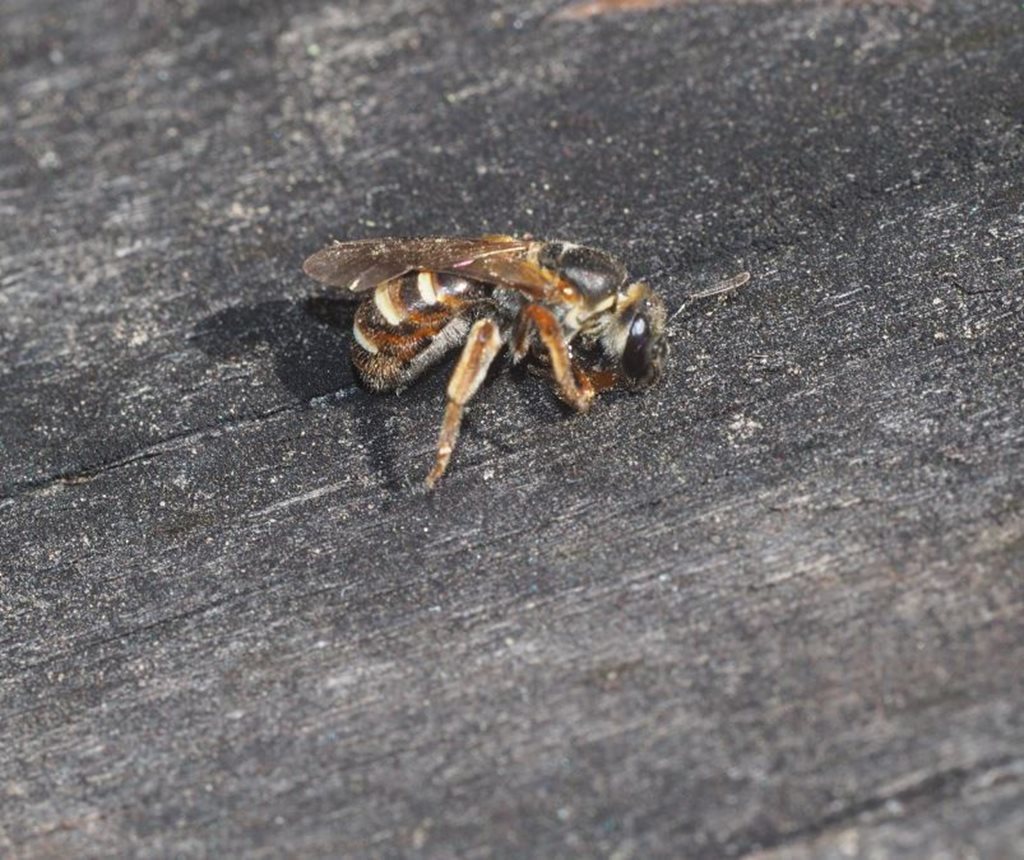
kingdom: Animalia
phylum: Arthropoda
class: Insecta
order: Hymenoptera
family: Halictidae
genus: Lasioglossum
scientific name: Lasioglossum bicingulatum
